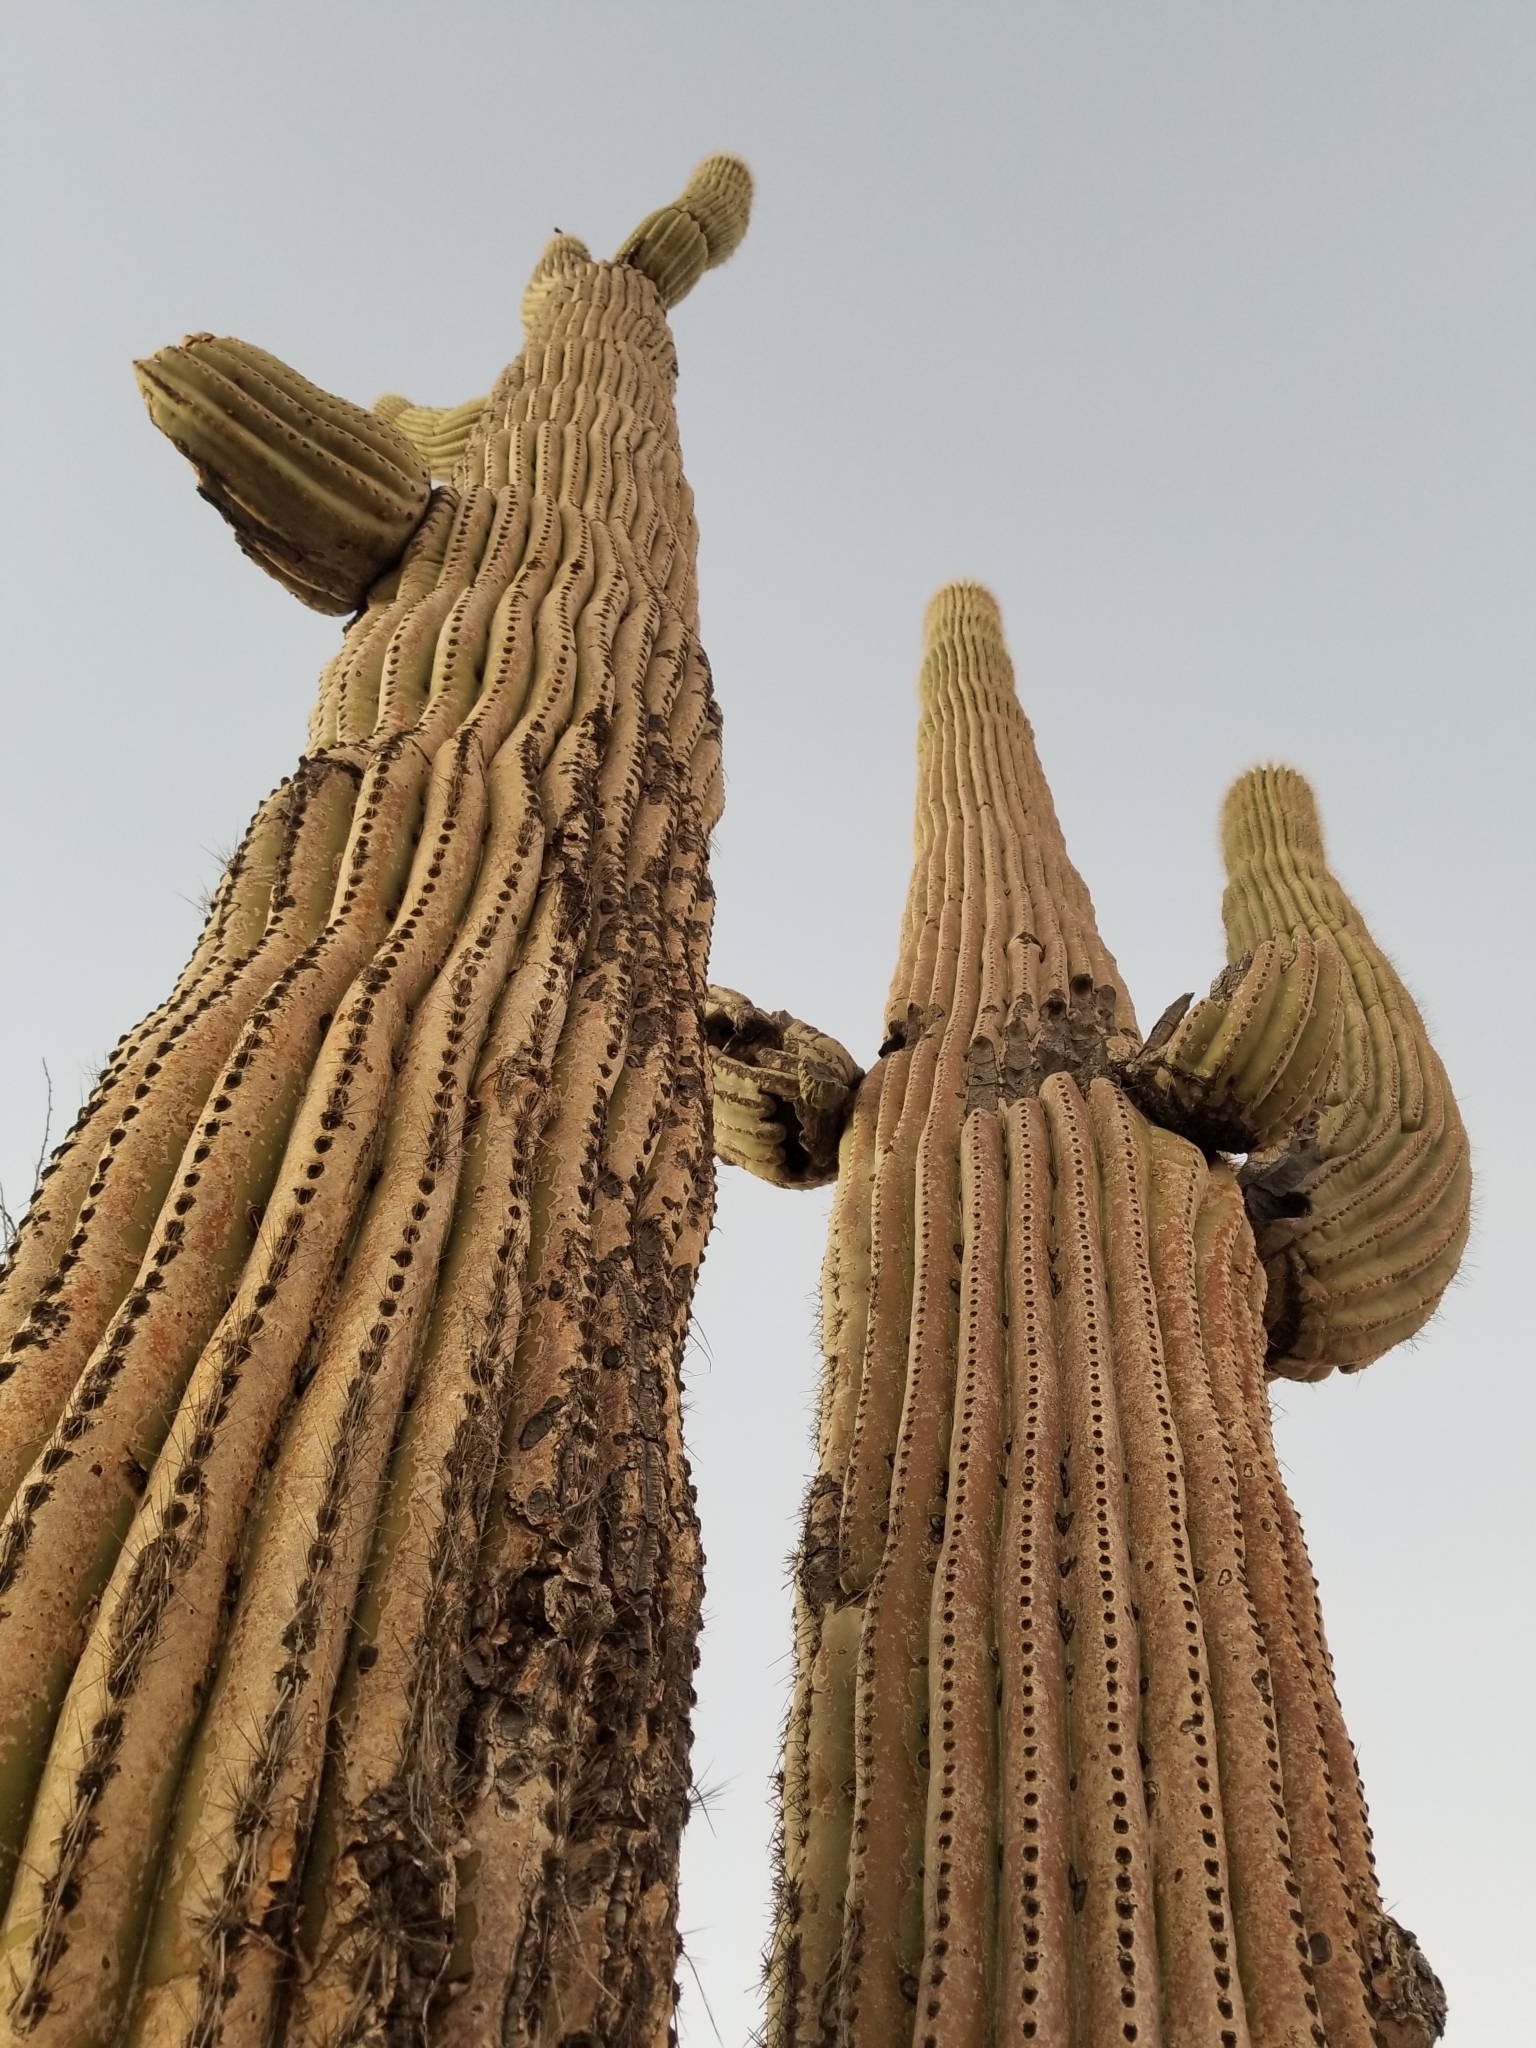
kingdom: Plantae
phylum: Tracheophyta
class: Magnoliopsida
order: Caryophyllales
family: Cactaceae
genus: Carnegiea
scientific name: Carnegiea gigantea
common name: Saguaro
